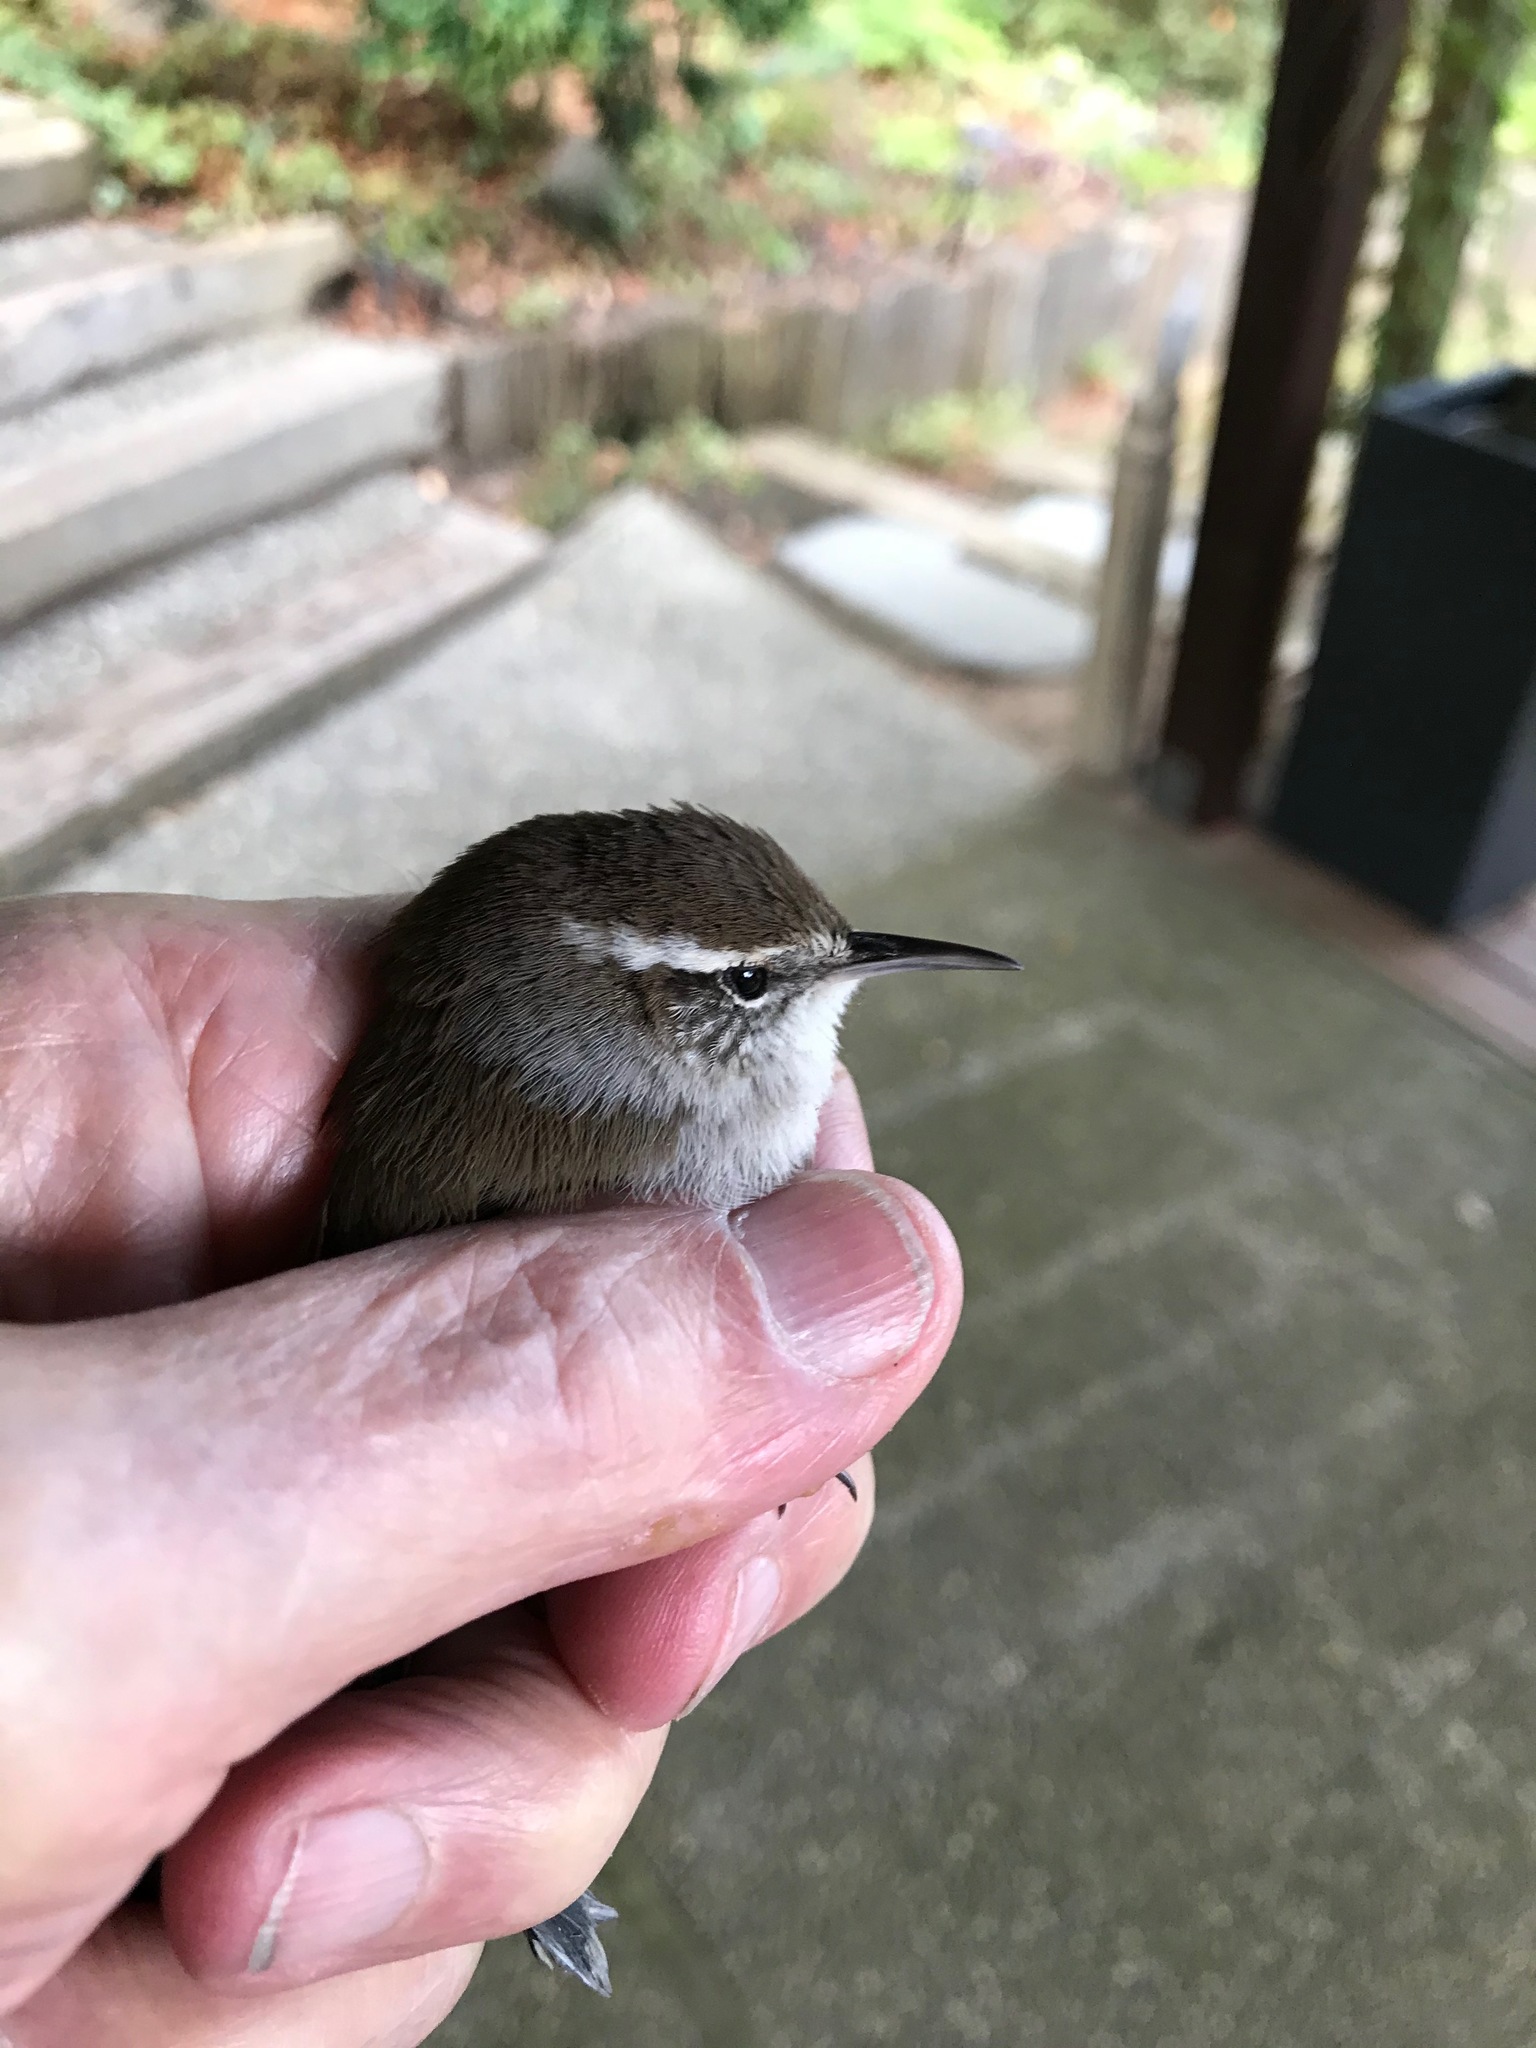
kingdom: Animalia
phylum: Chordata
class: Aves
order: Passeriformes
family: Troglodytidae
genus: Thryomanes
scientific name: Thryomanes bewickii
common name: Bewick's wren
